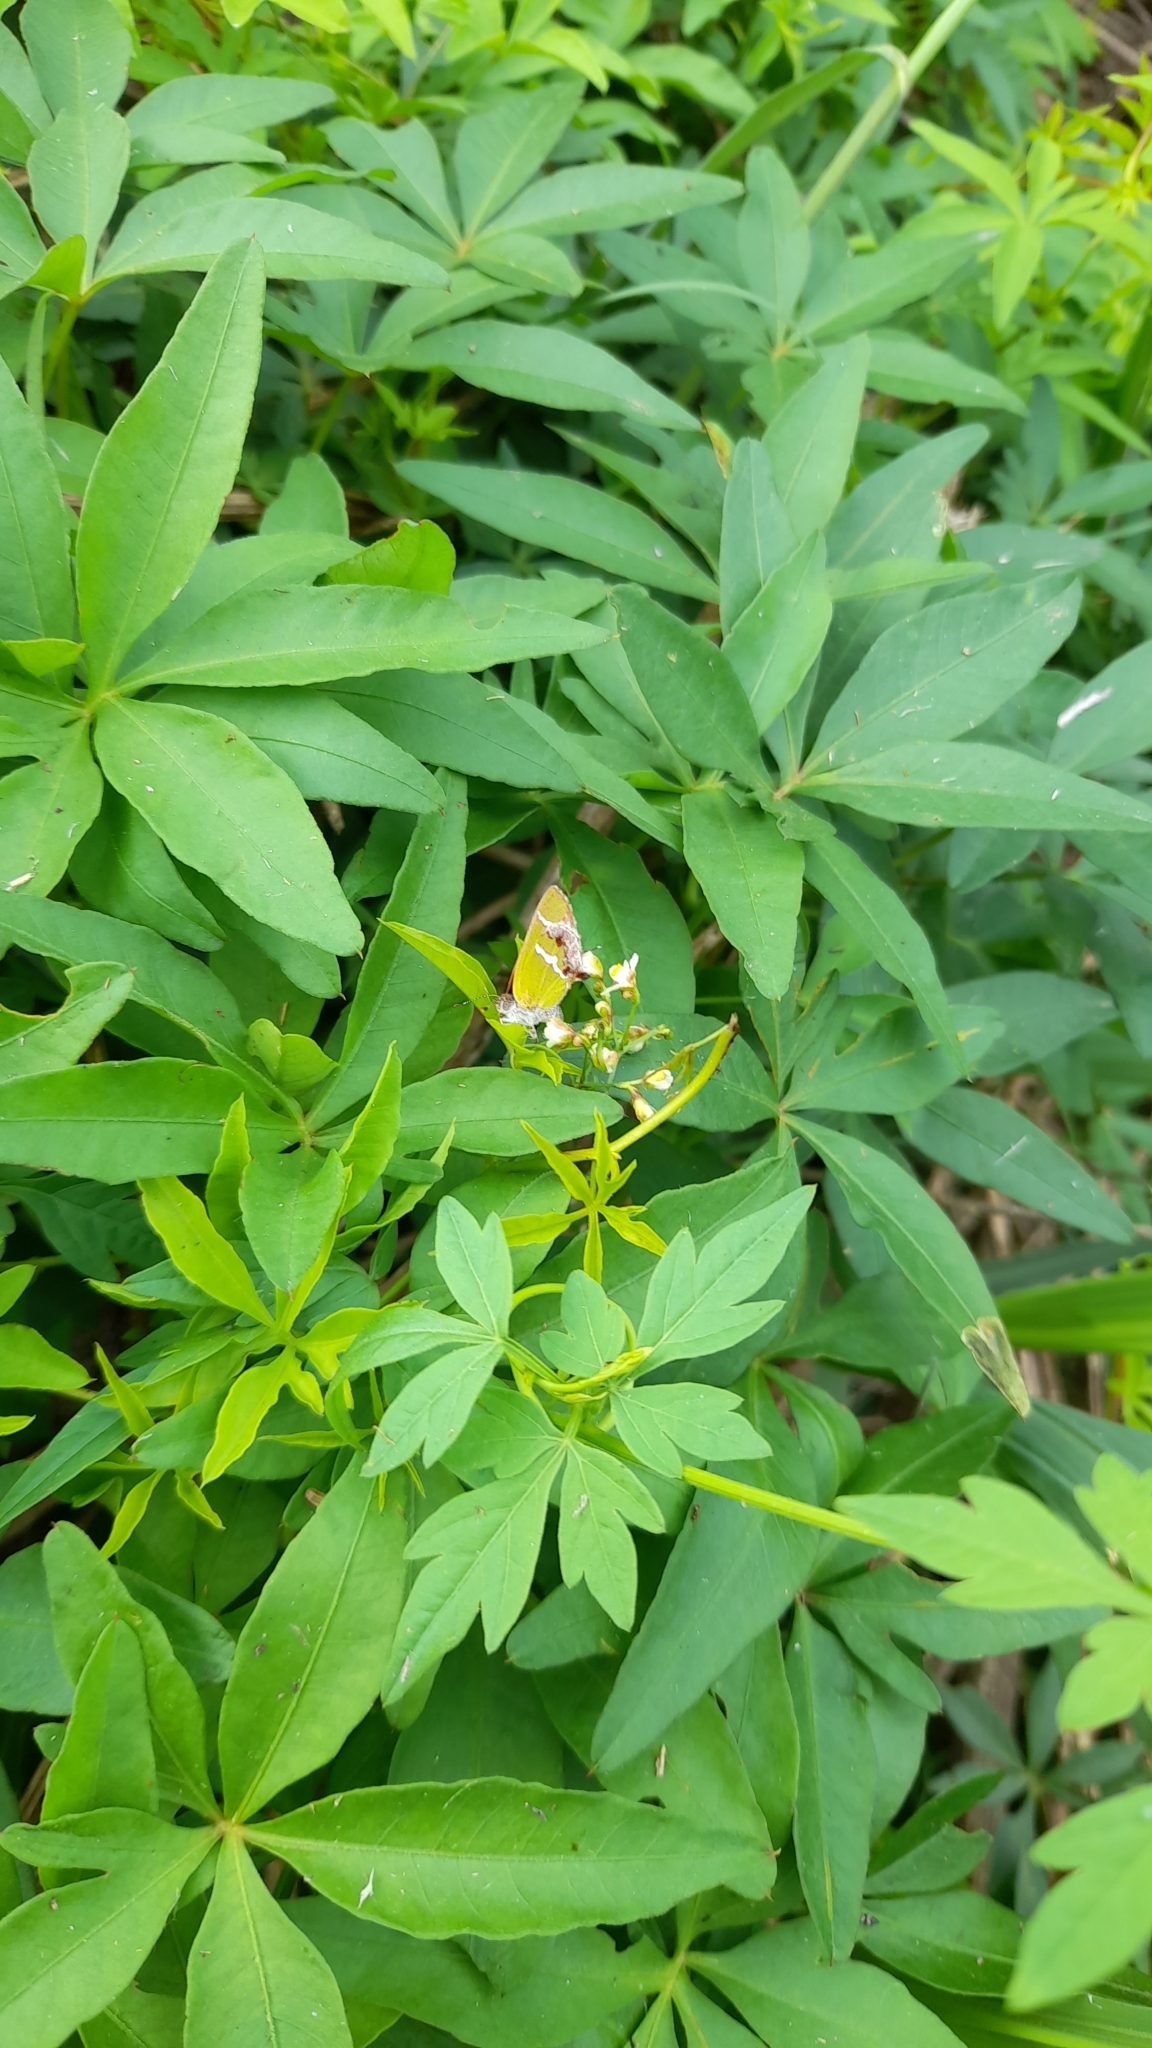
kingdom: Plantae
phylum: Tracheophyta
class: Magnoliopsida
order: Sapindales
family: Sapindaceae
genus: Cardiospermum
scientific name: Cardiospermum halicacabum
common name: Balloon vine
